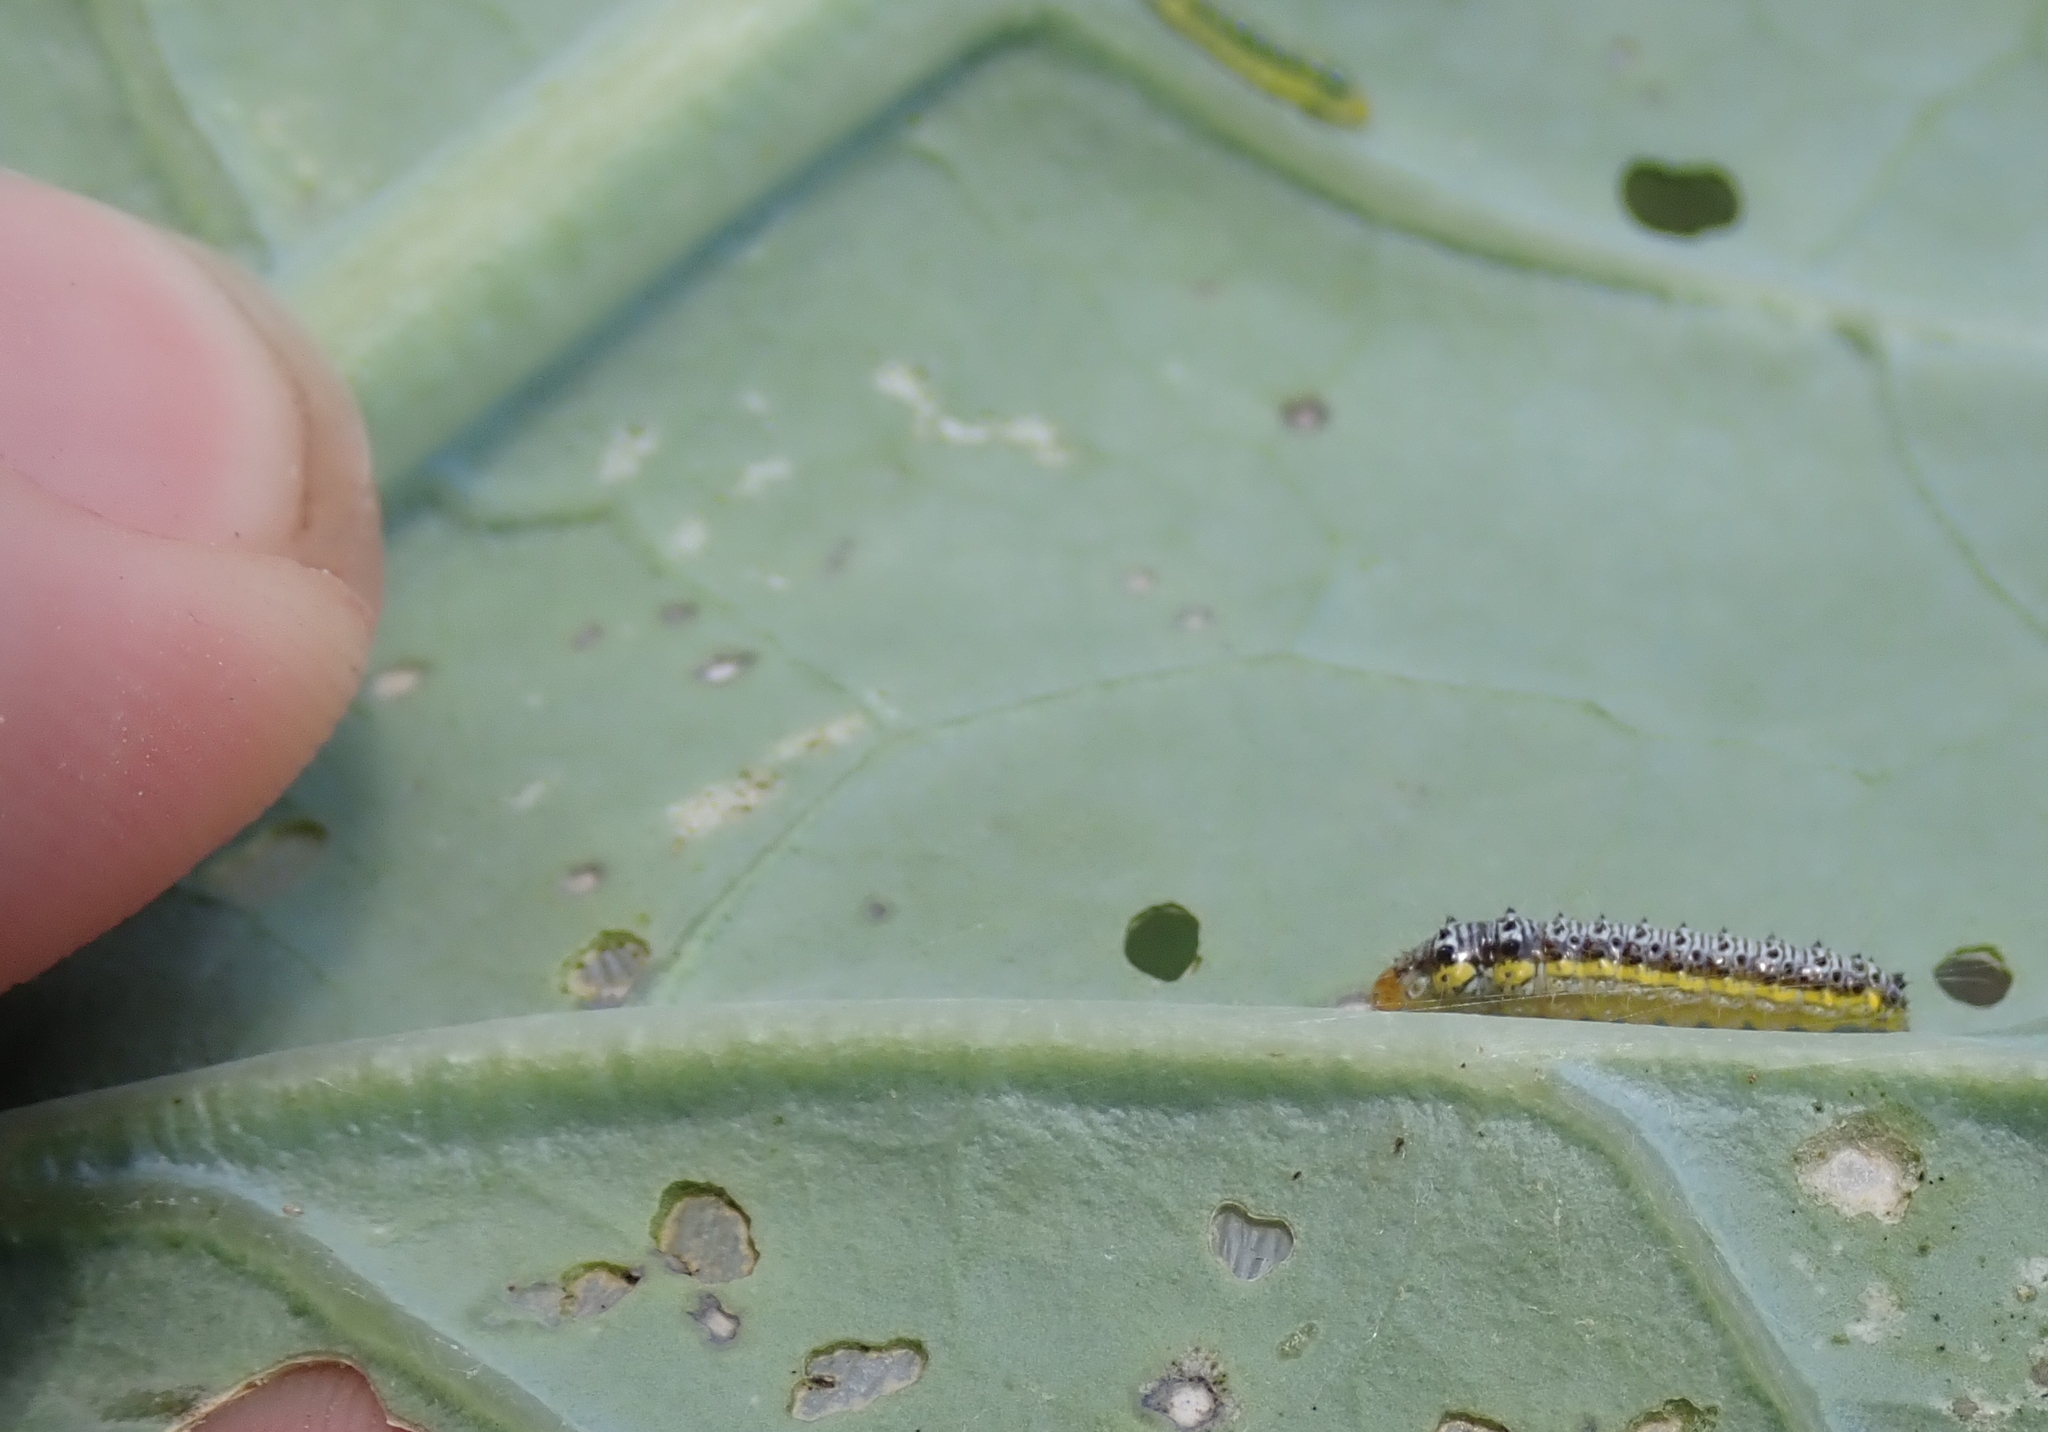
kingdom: Animalia
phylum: Arthropoda
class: Insecta
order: Lepidoptera
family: Crambidae
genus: Evergestis
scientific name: Evergestis rimosalis
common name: Cross-striped cabbageworm moth
